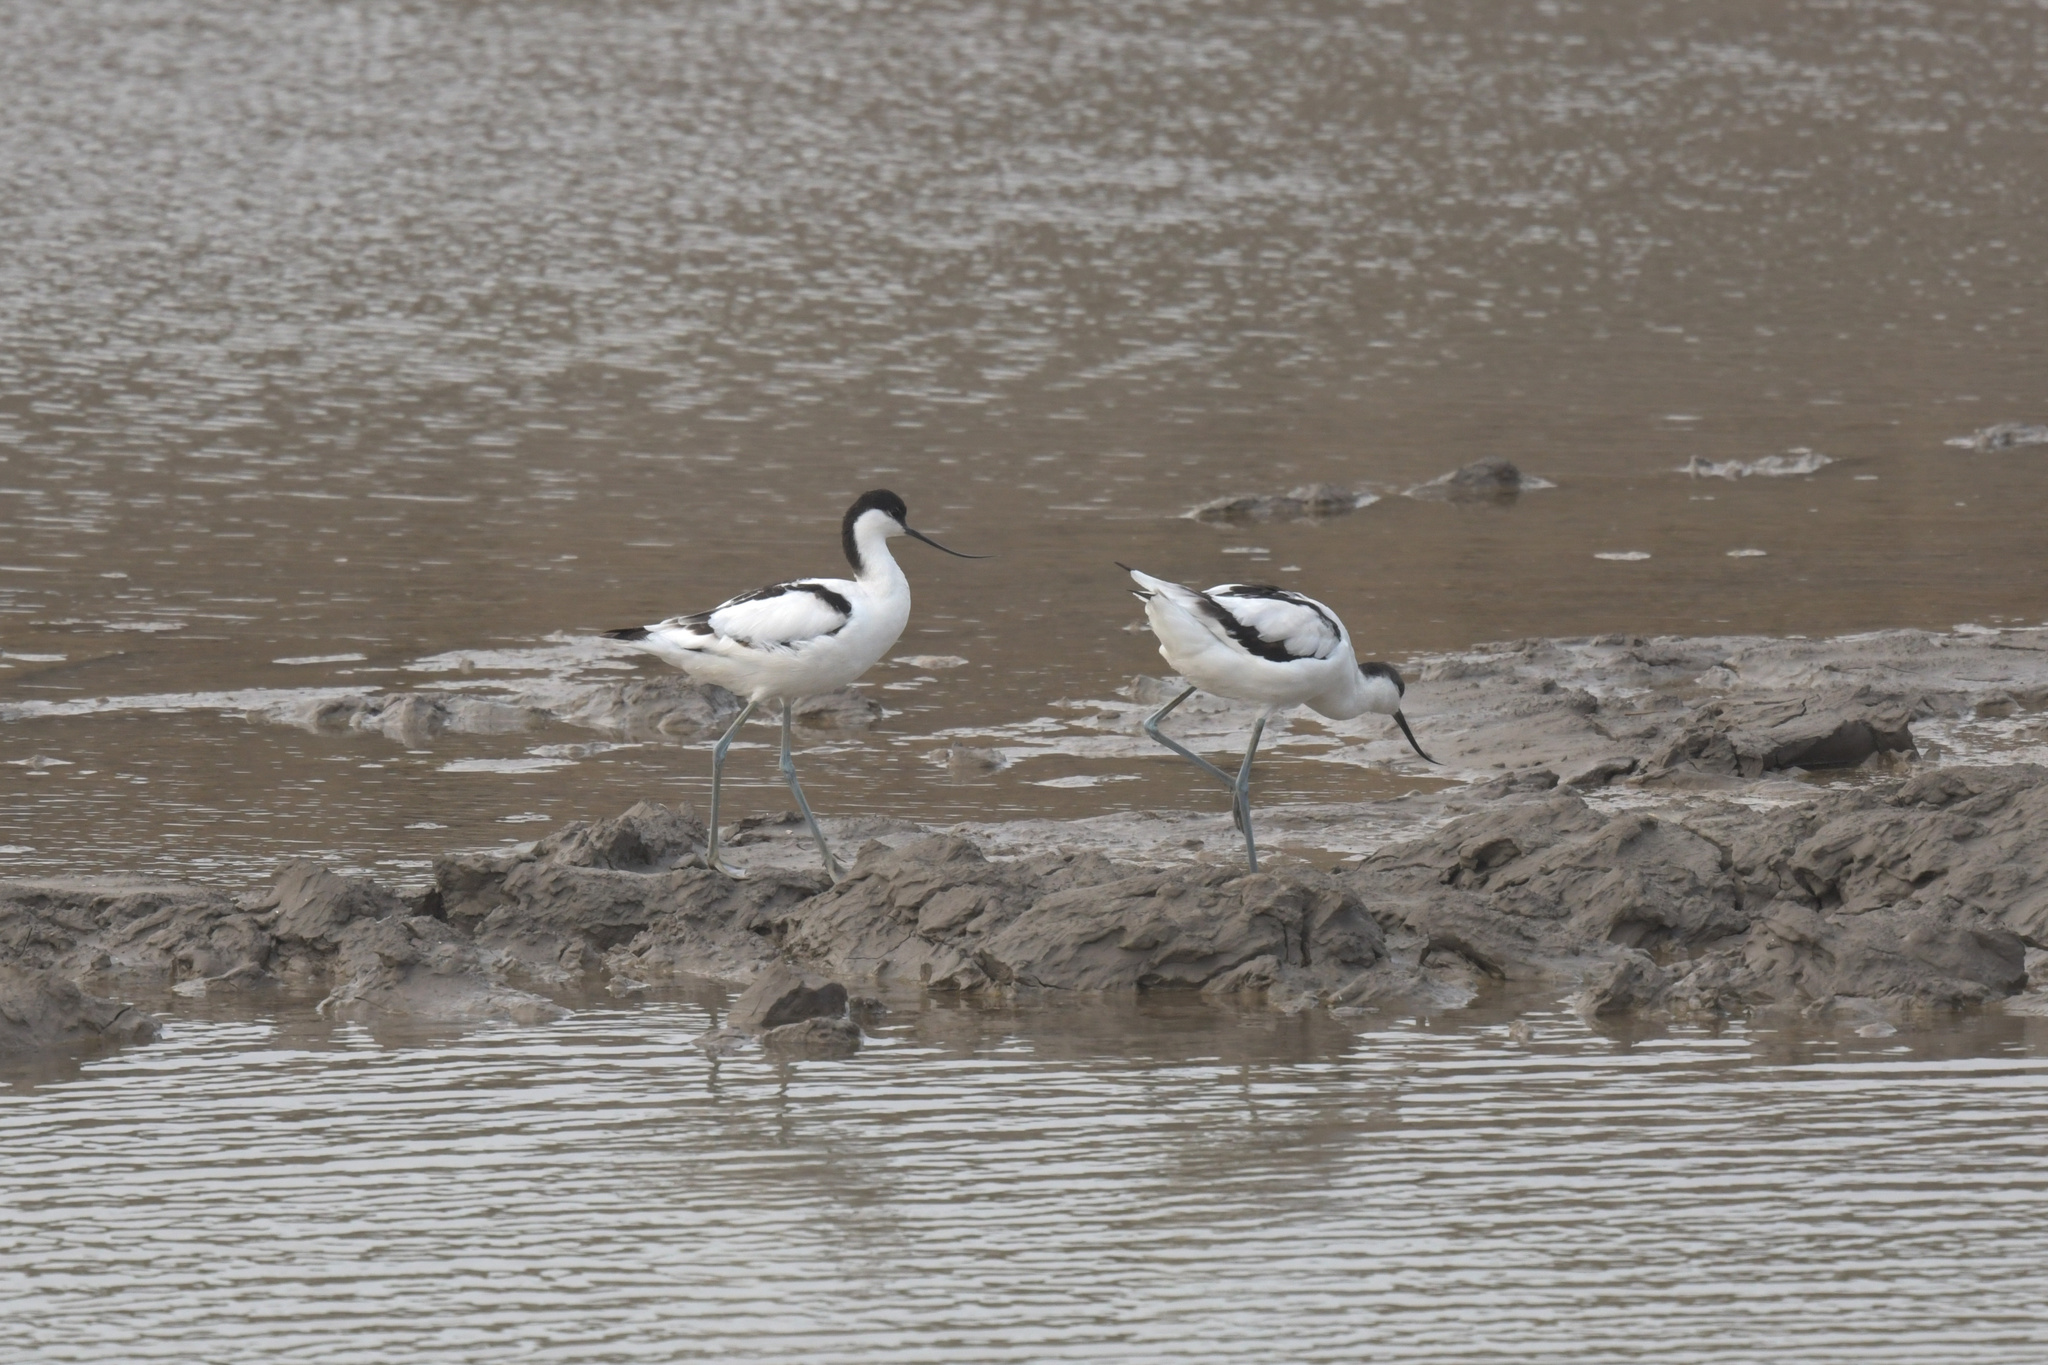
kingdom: Animalia
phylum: Chordata
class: Aves
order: Charadriiformes
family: Recurvirostridae
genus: Recurvirostra
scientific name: Recurvirostra avosetta
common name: Pied avocet
